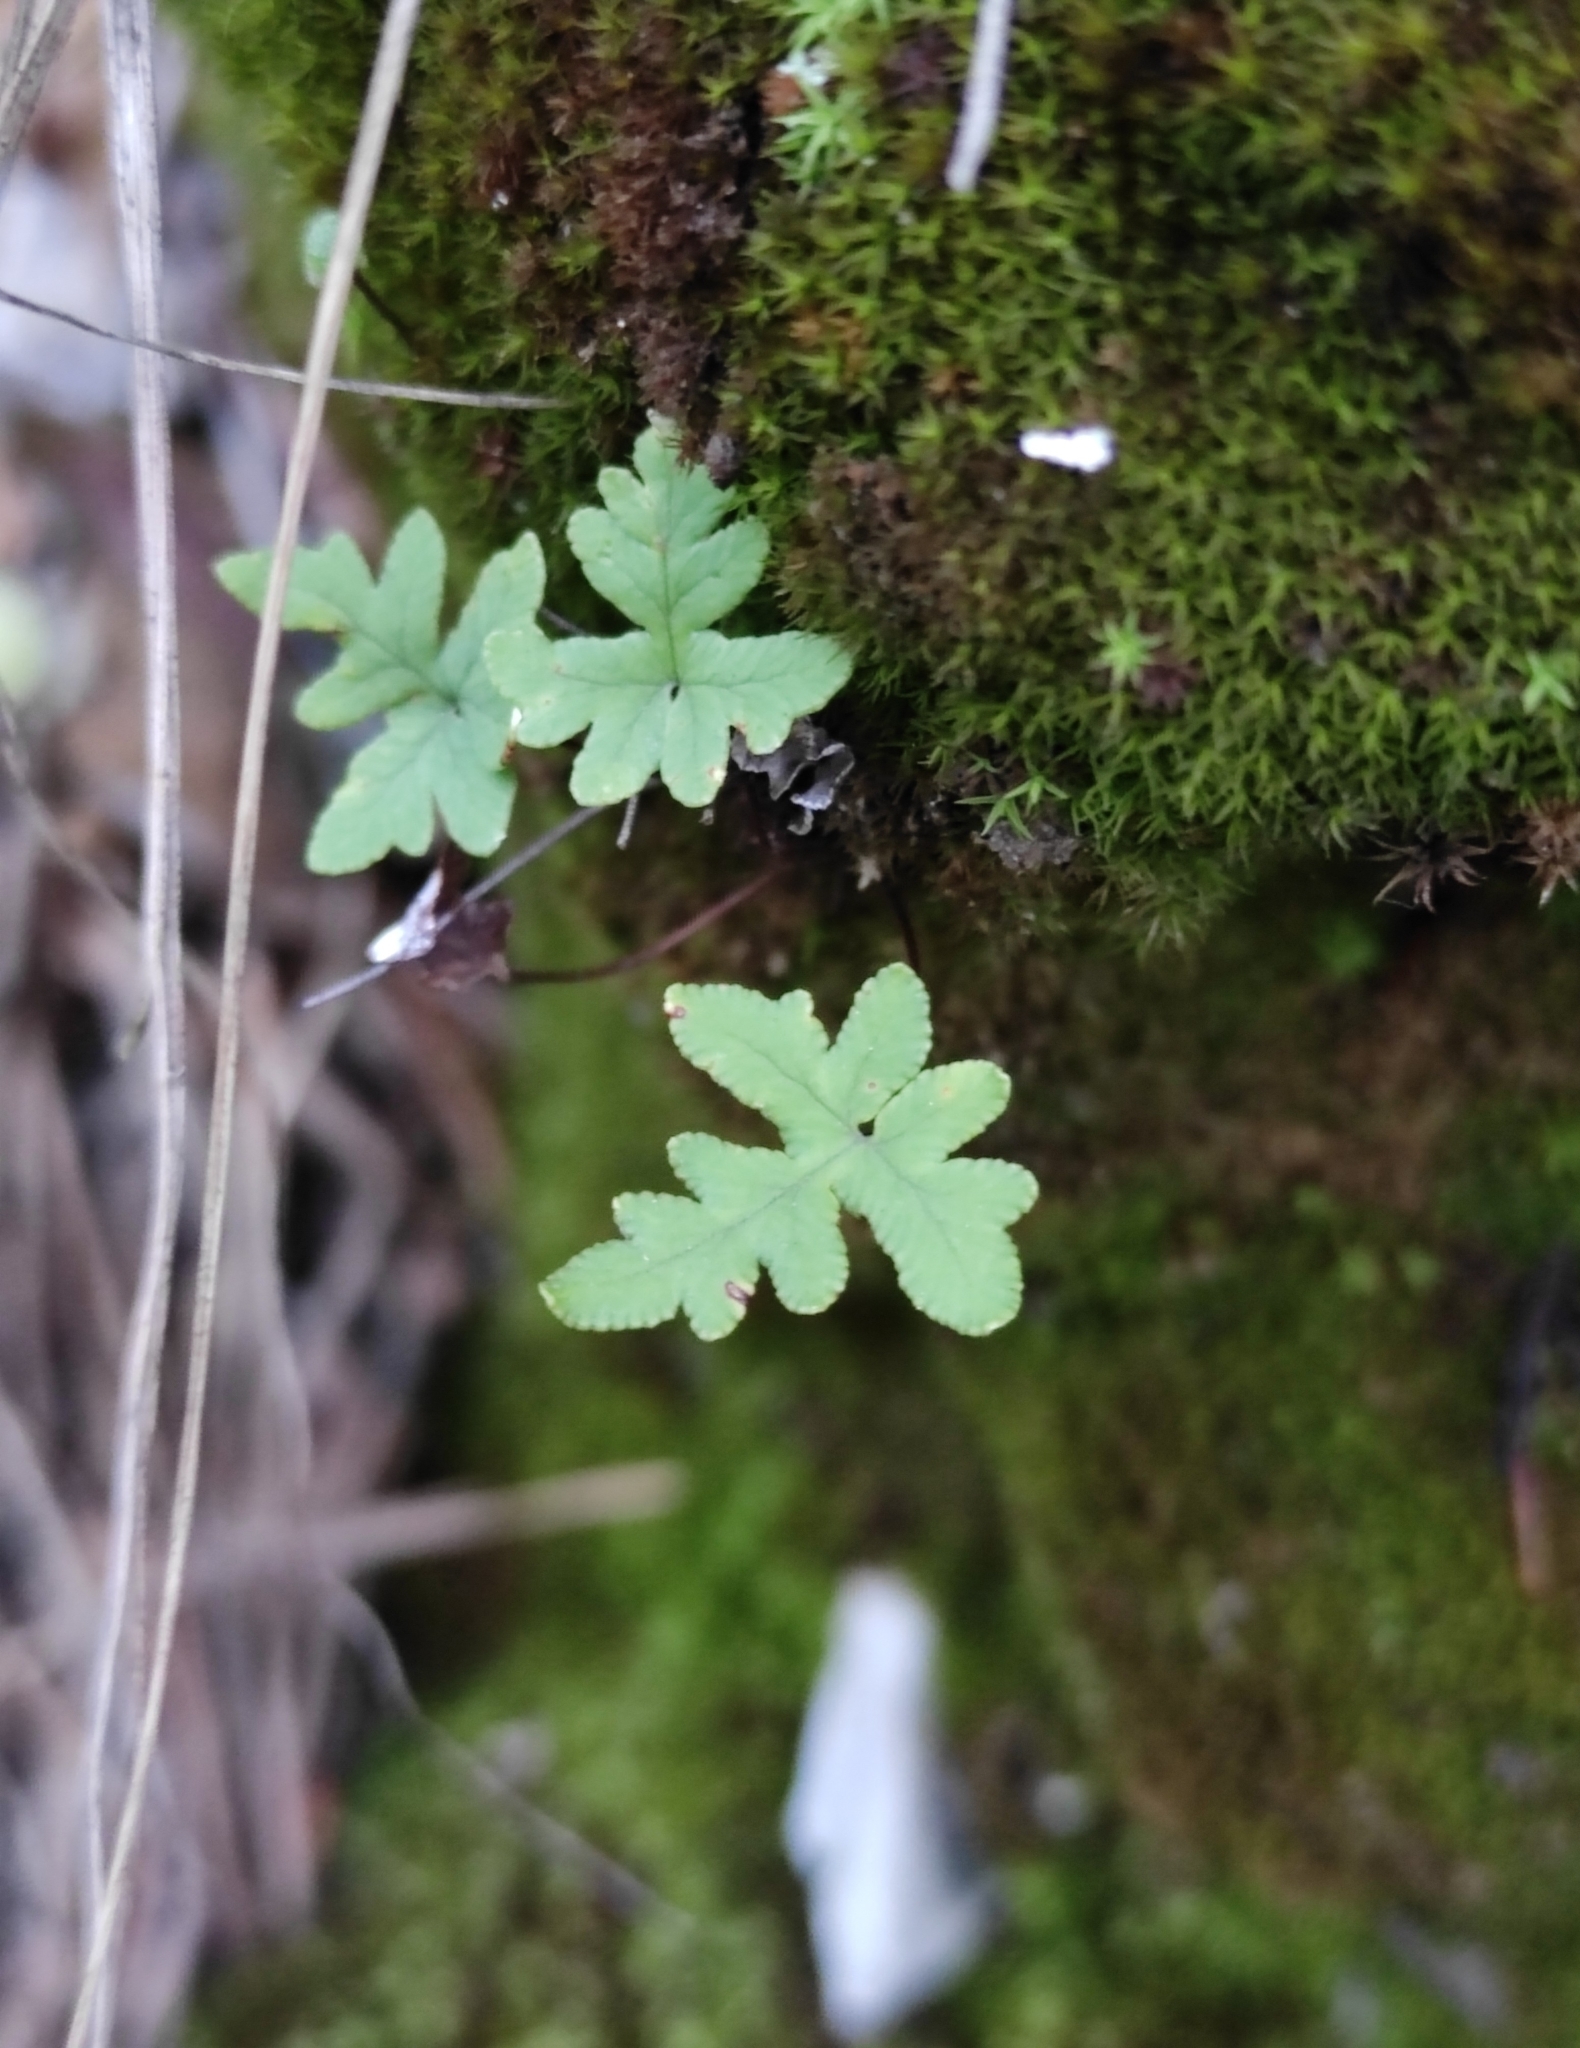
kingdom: Plantae
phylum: Tracheophyta
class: Polypodiopsida
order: Polypodiales
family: Pteridaceae
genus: Aleuritopteris
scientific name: Aleuritopteris argentea
